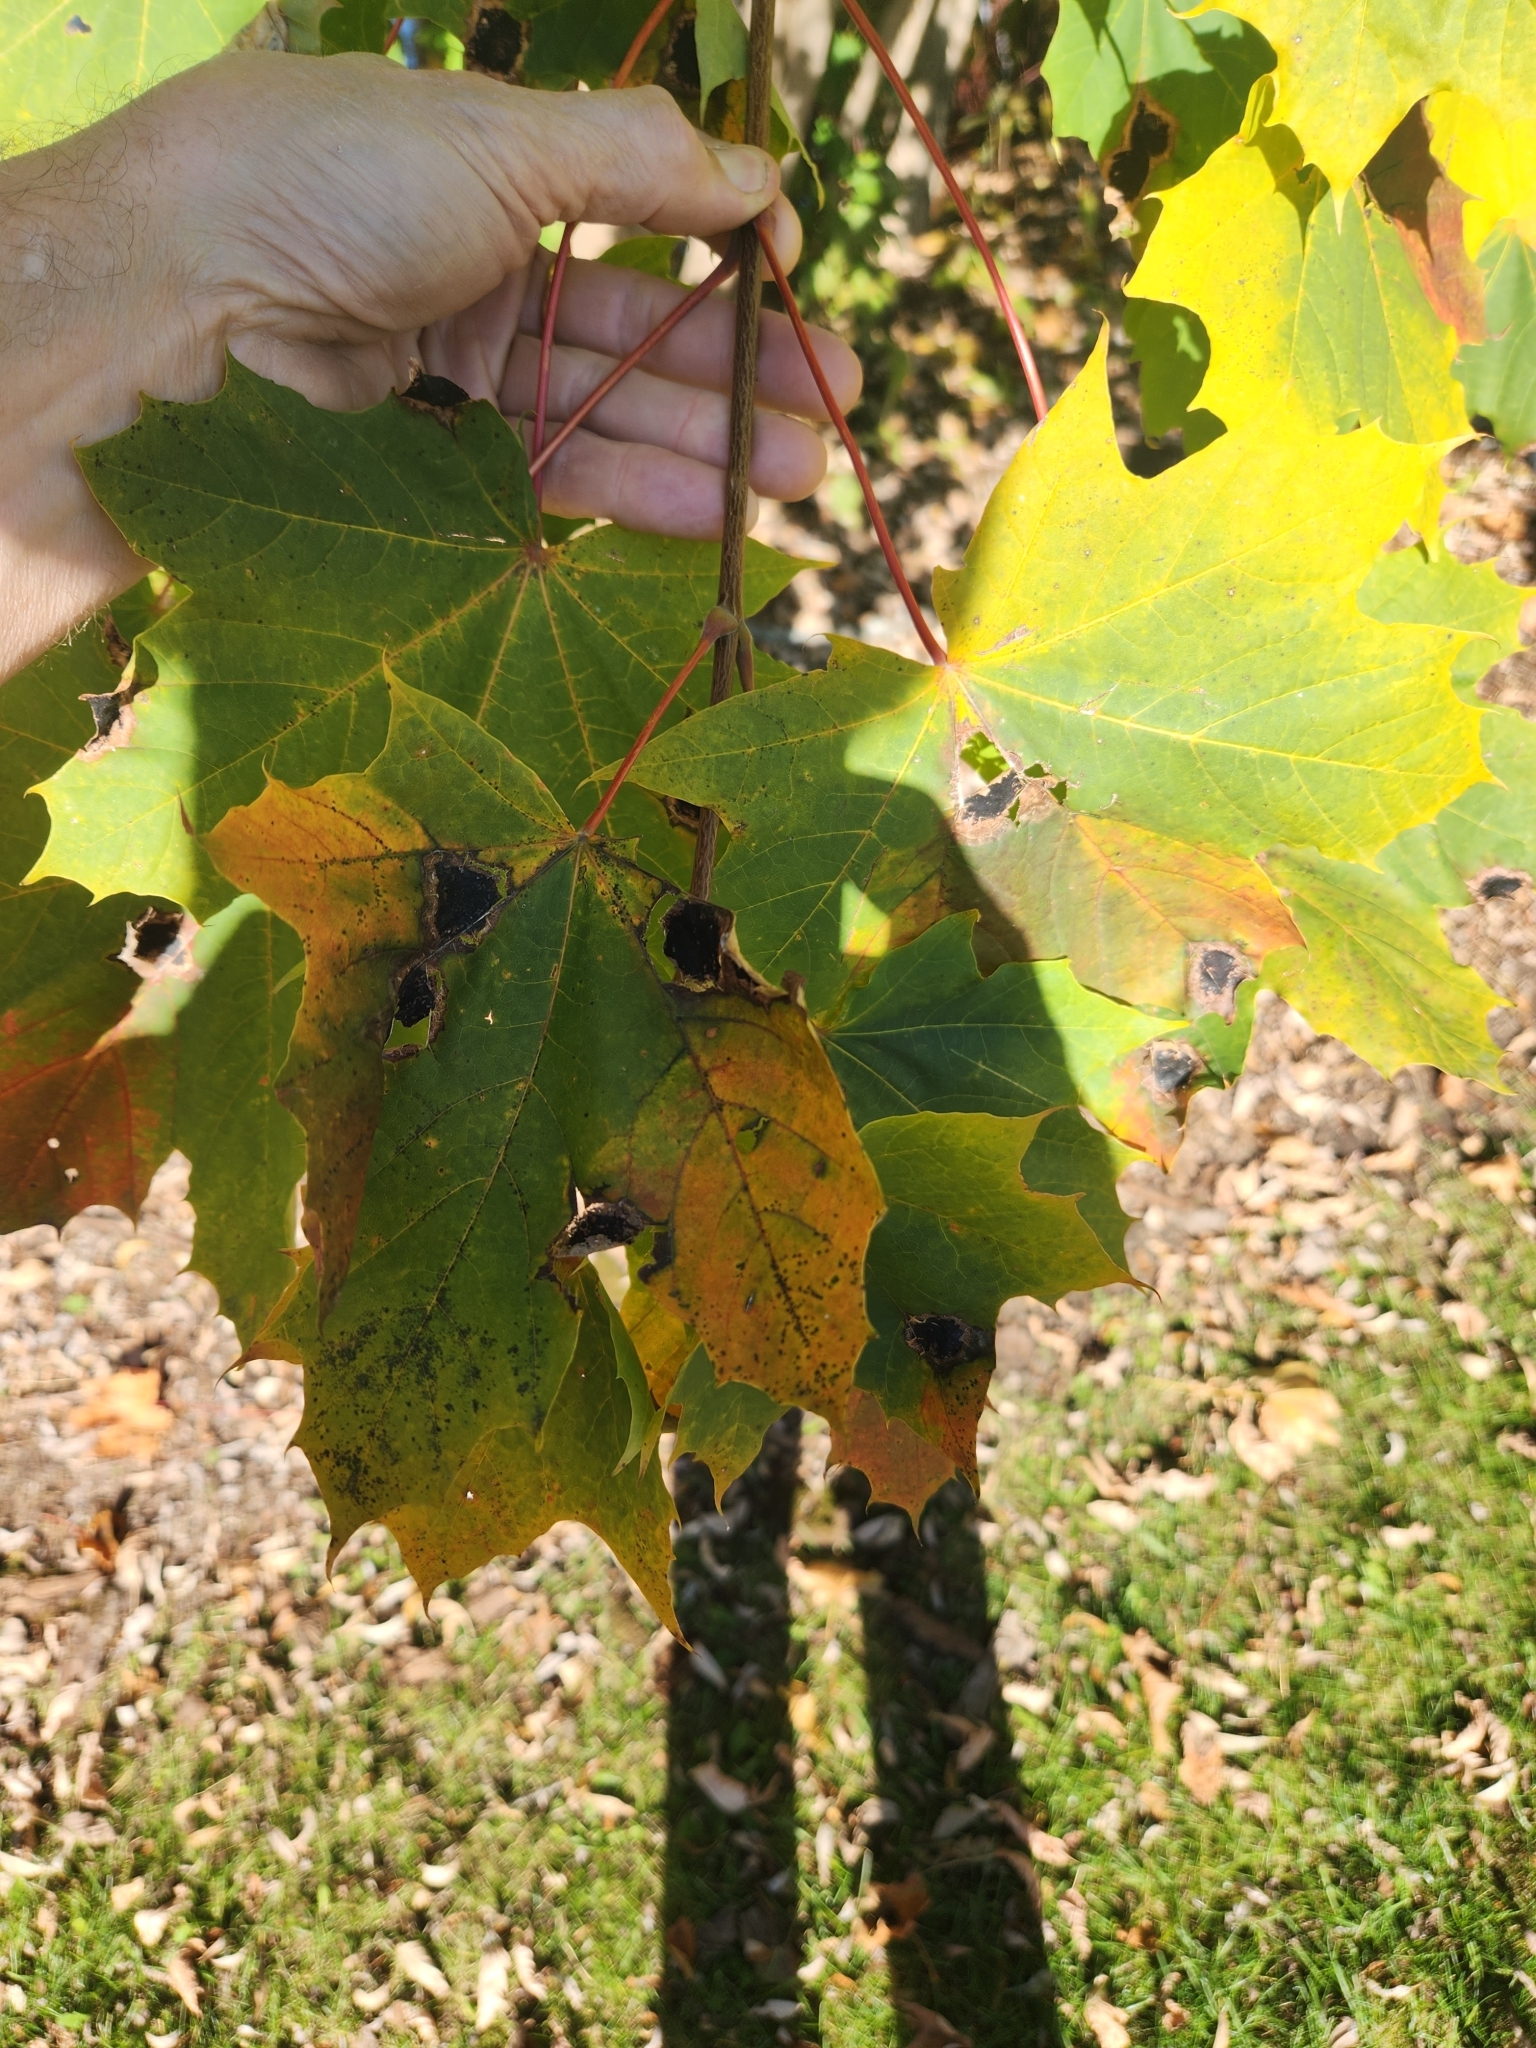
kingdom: Plantae
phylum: Tracheophyta
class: Magnoliopsida
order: Sapindales
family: Sapindaceae
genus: Acer
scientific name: Acer platanoides
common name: Norway maple
